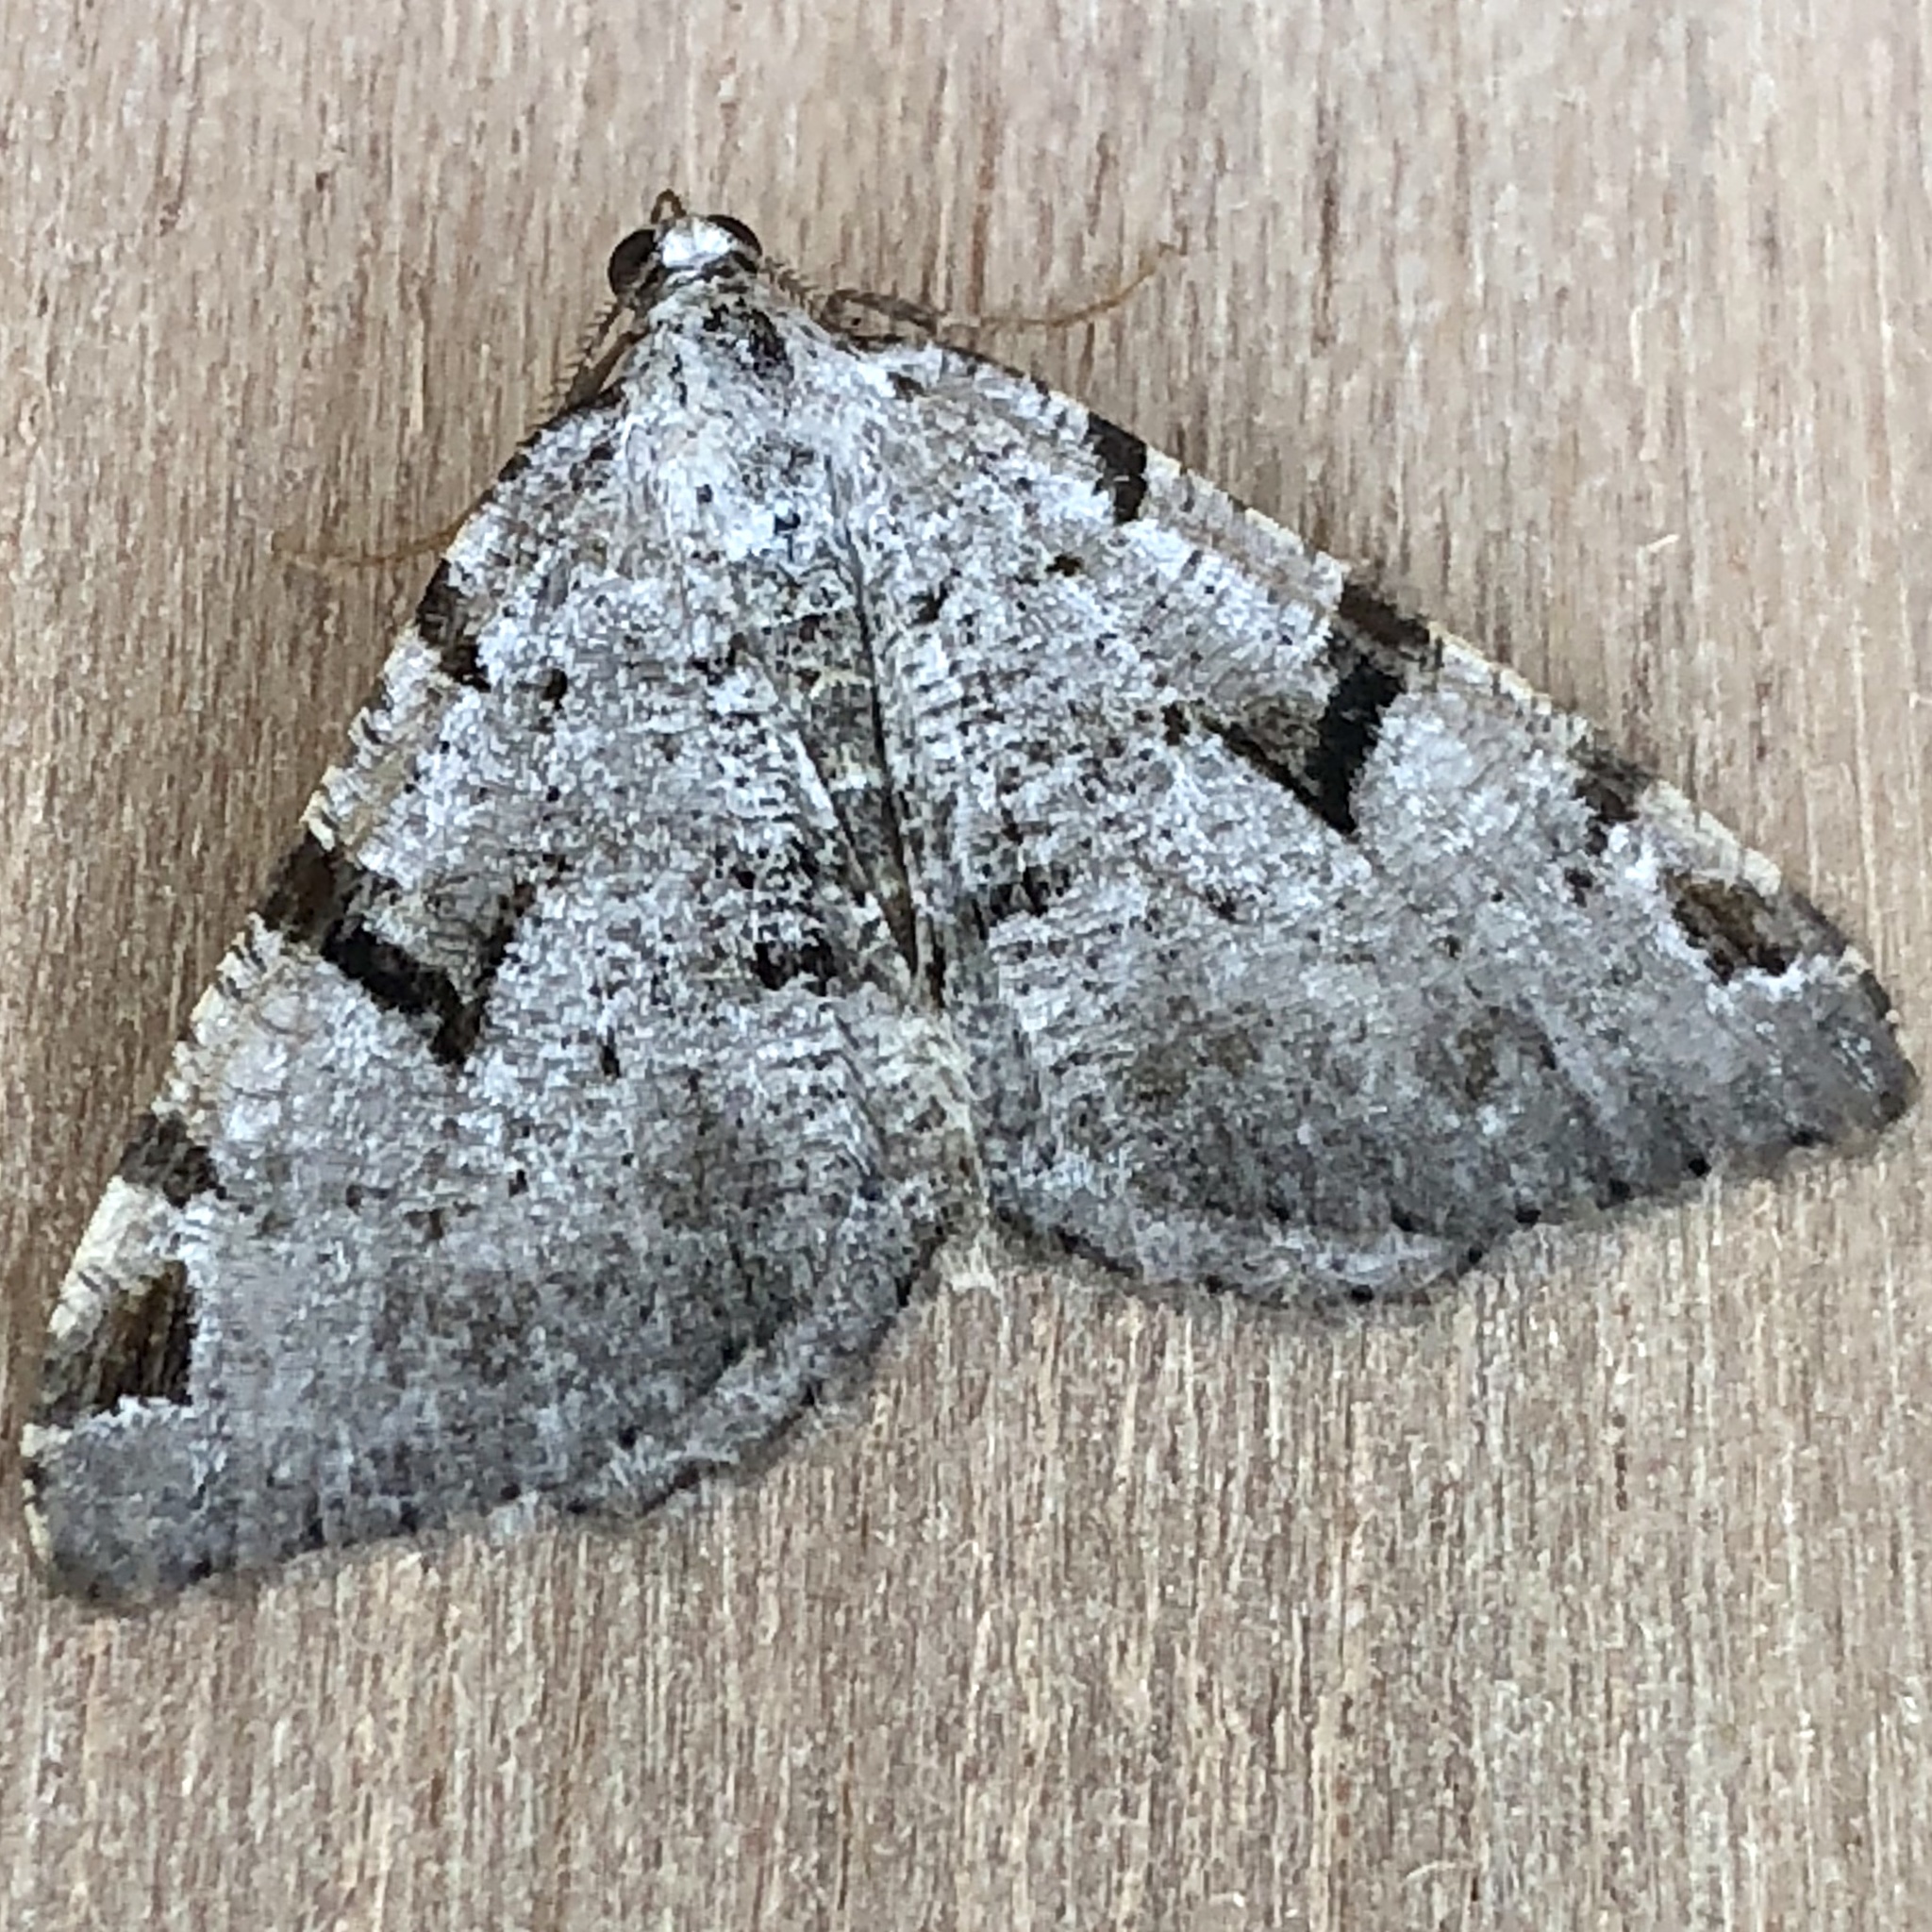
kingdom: Animalia
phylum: Arthropoda
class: Insecta
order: Lepidoptera
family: Geometridae
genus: Macaria
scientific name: Macaria wauaria
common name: V-moth
